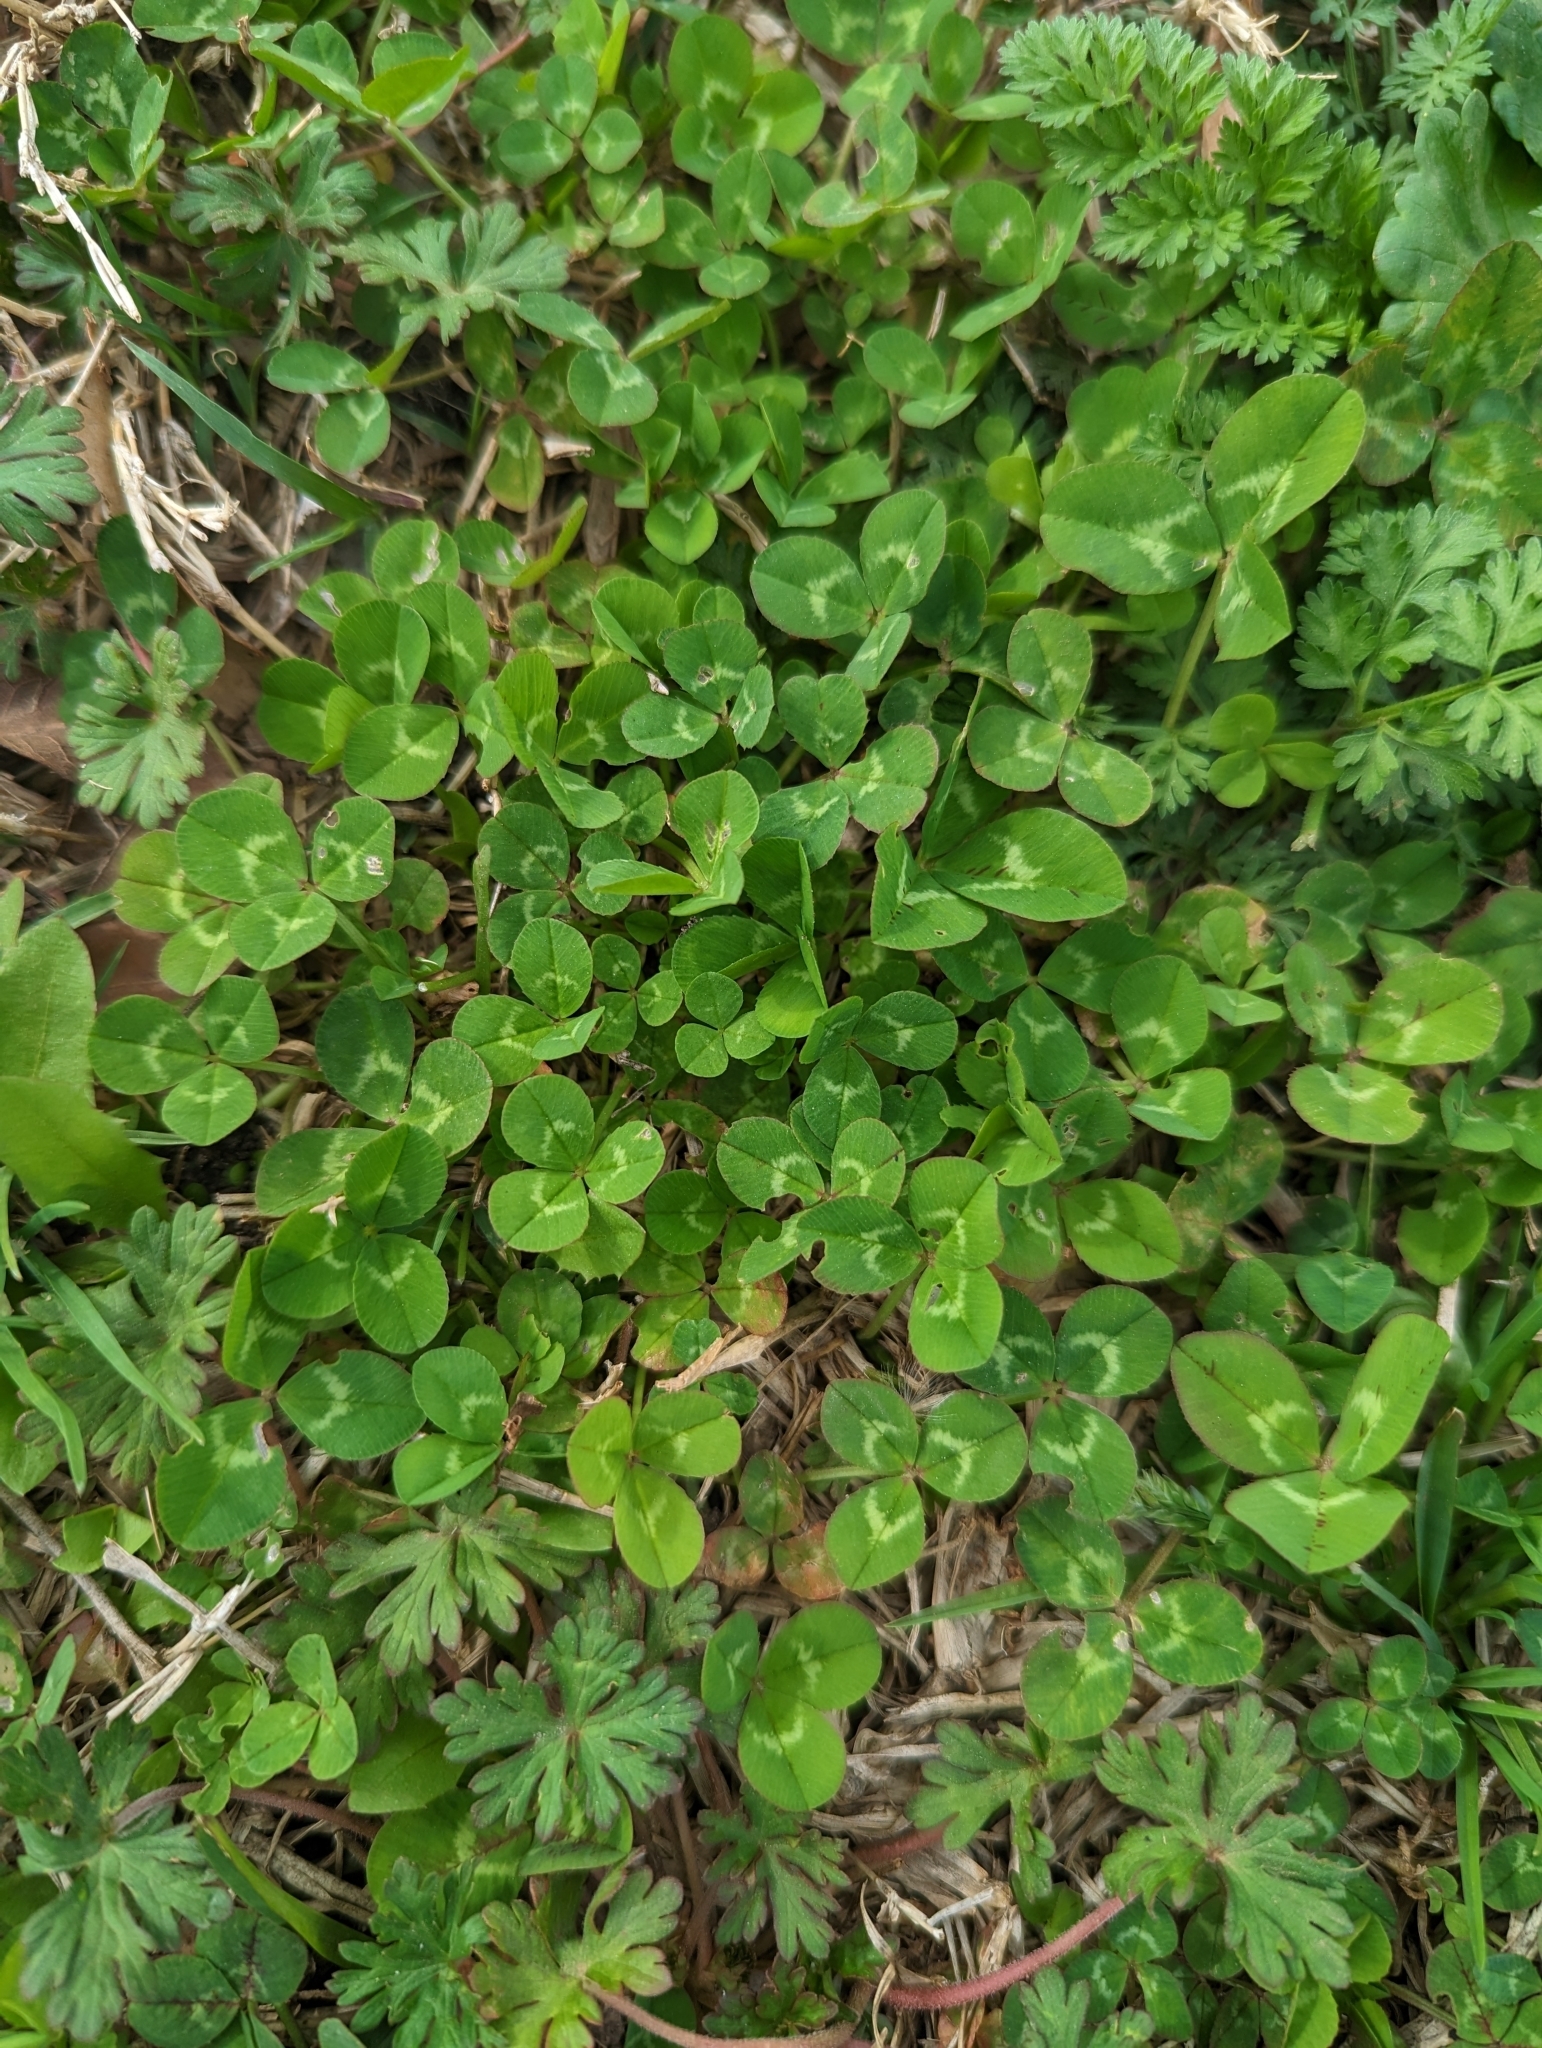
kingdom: Plantae
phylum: Tracheophyta
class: Magnoliopsida
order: Fabales
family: Fabaceae
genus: Trifolium
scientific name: Trifolium repens
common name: White clover
